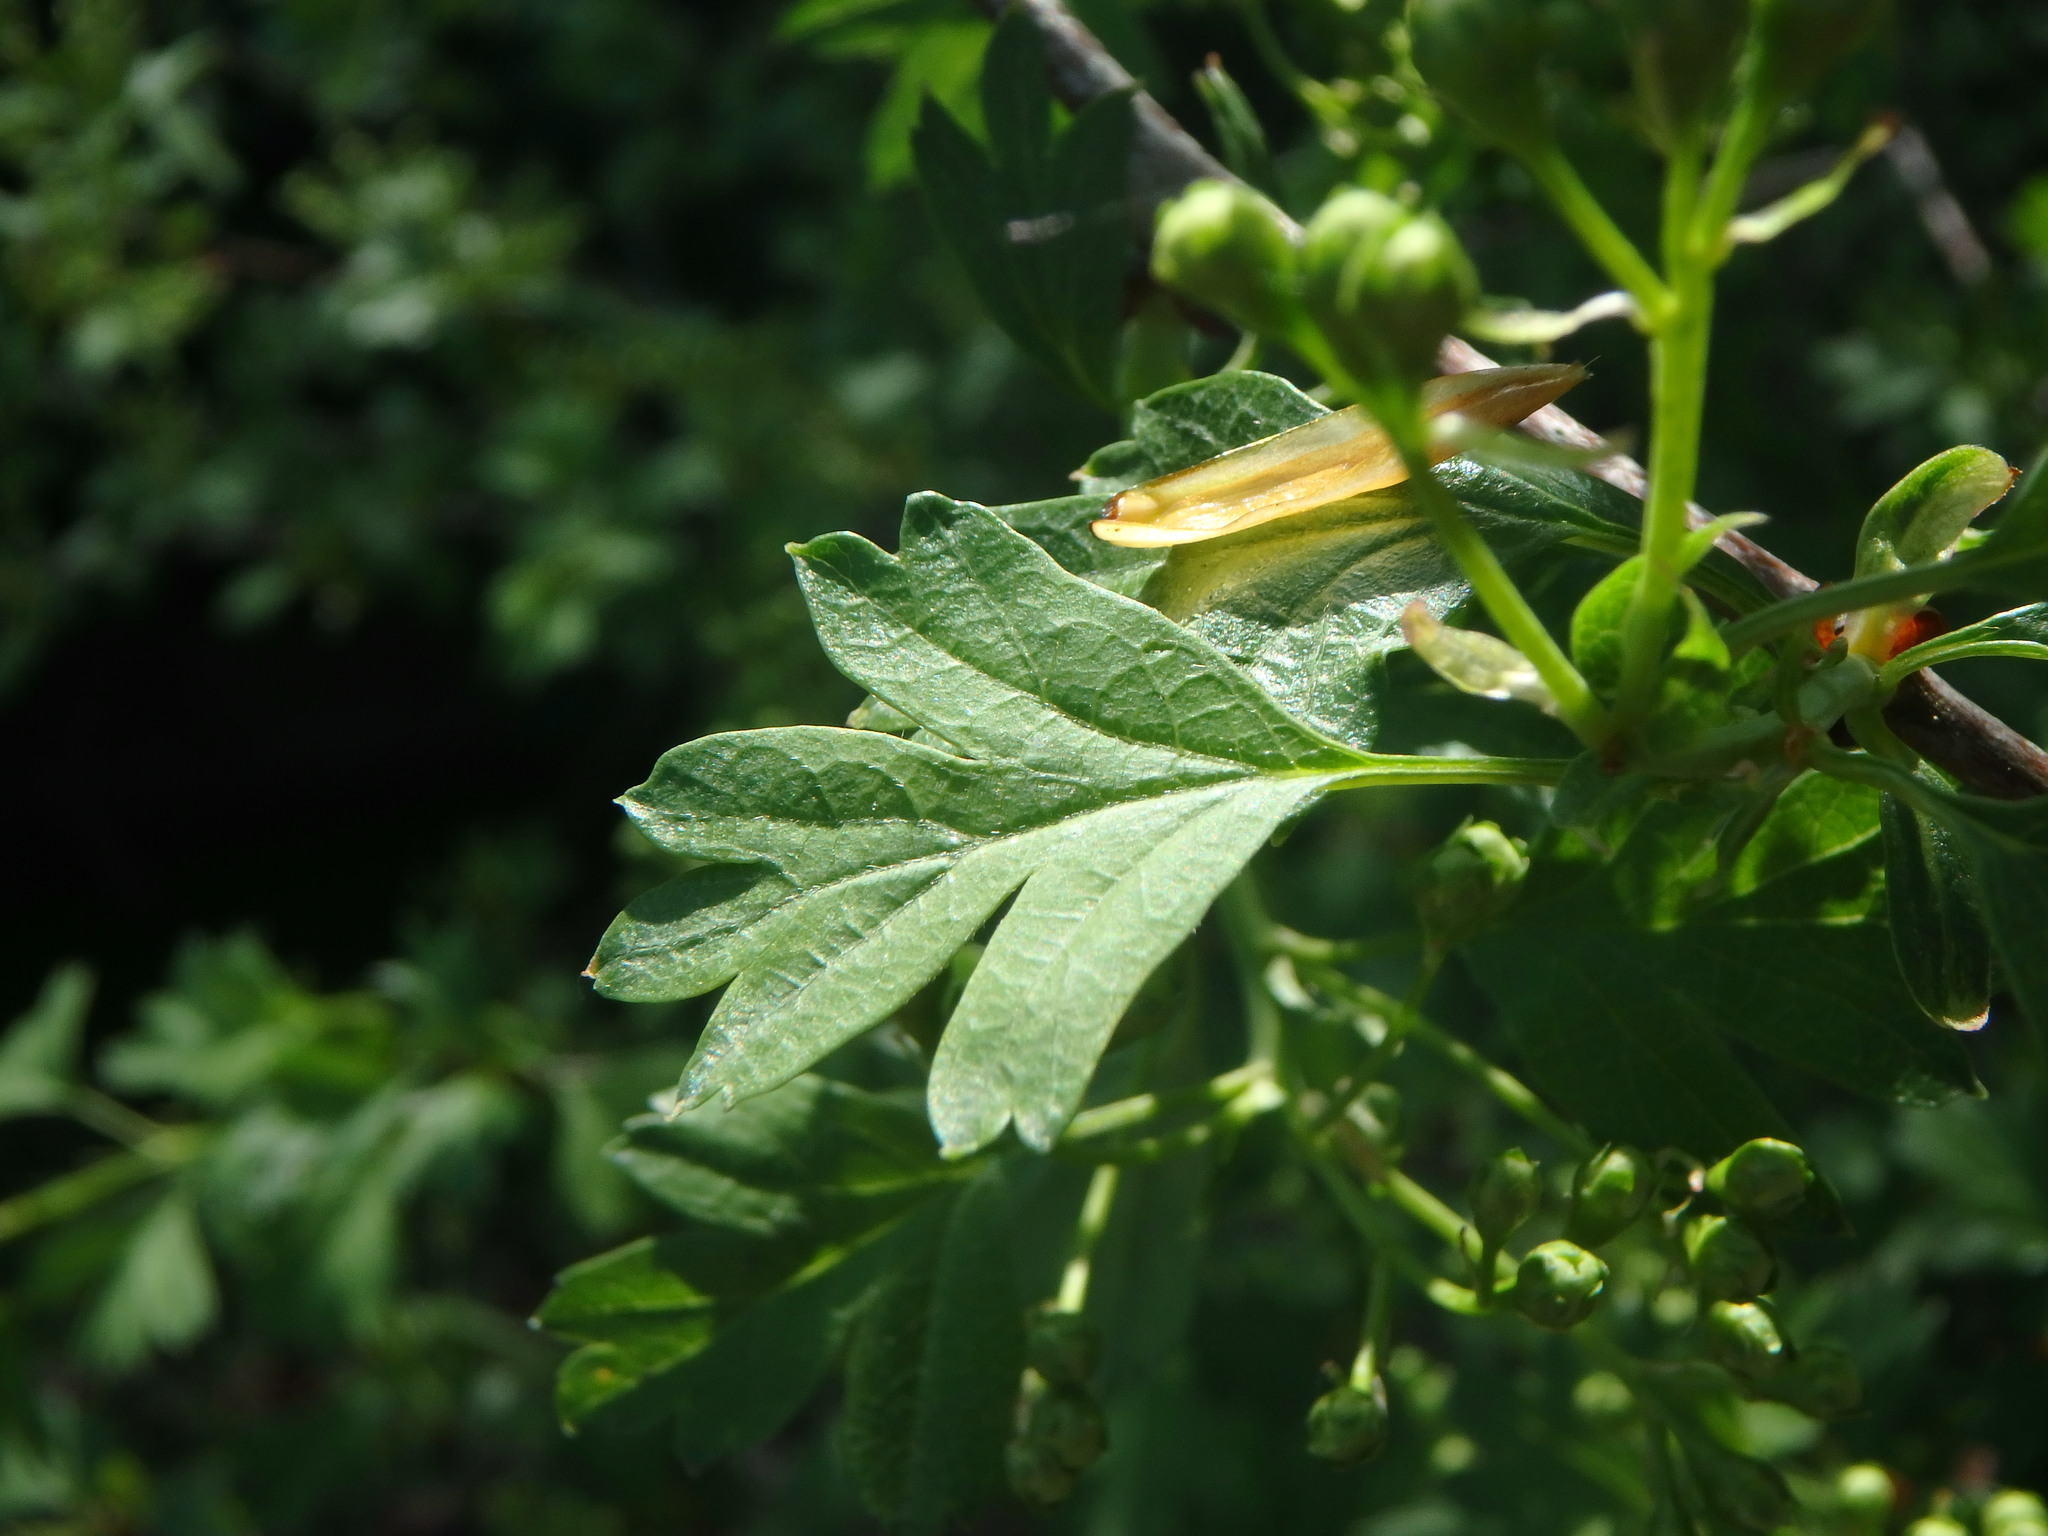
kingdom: Plantae
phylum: Tracheophyta
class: Magnoliopsida
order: Rosales
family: Rosaceae
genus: Crataegus
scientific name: Crataegus monogyna
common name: Hawthorn
